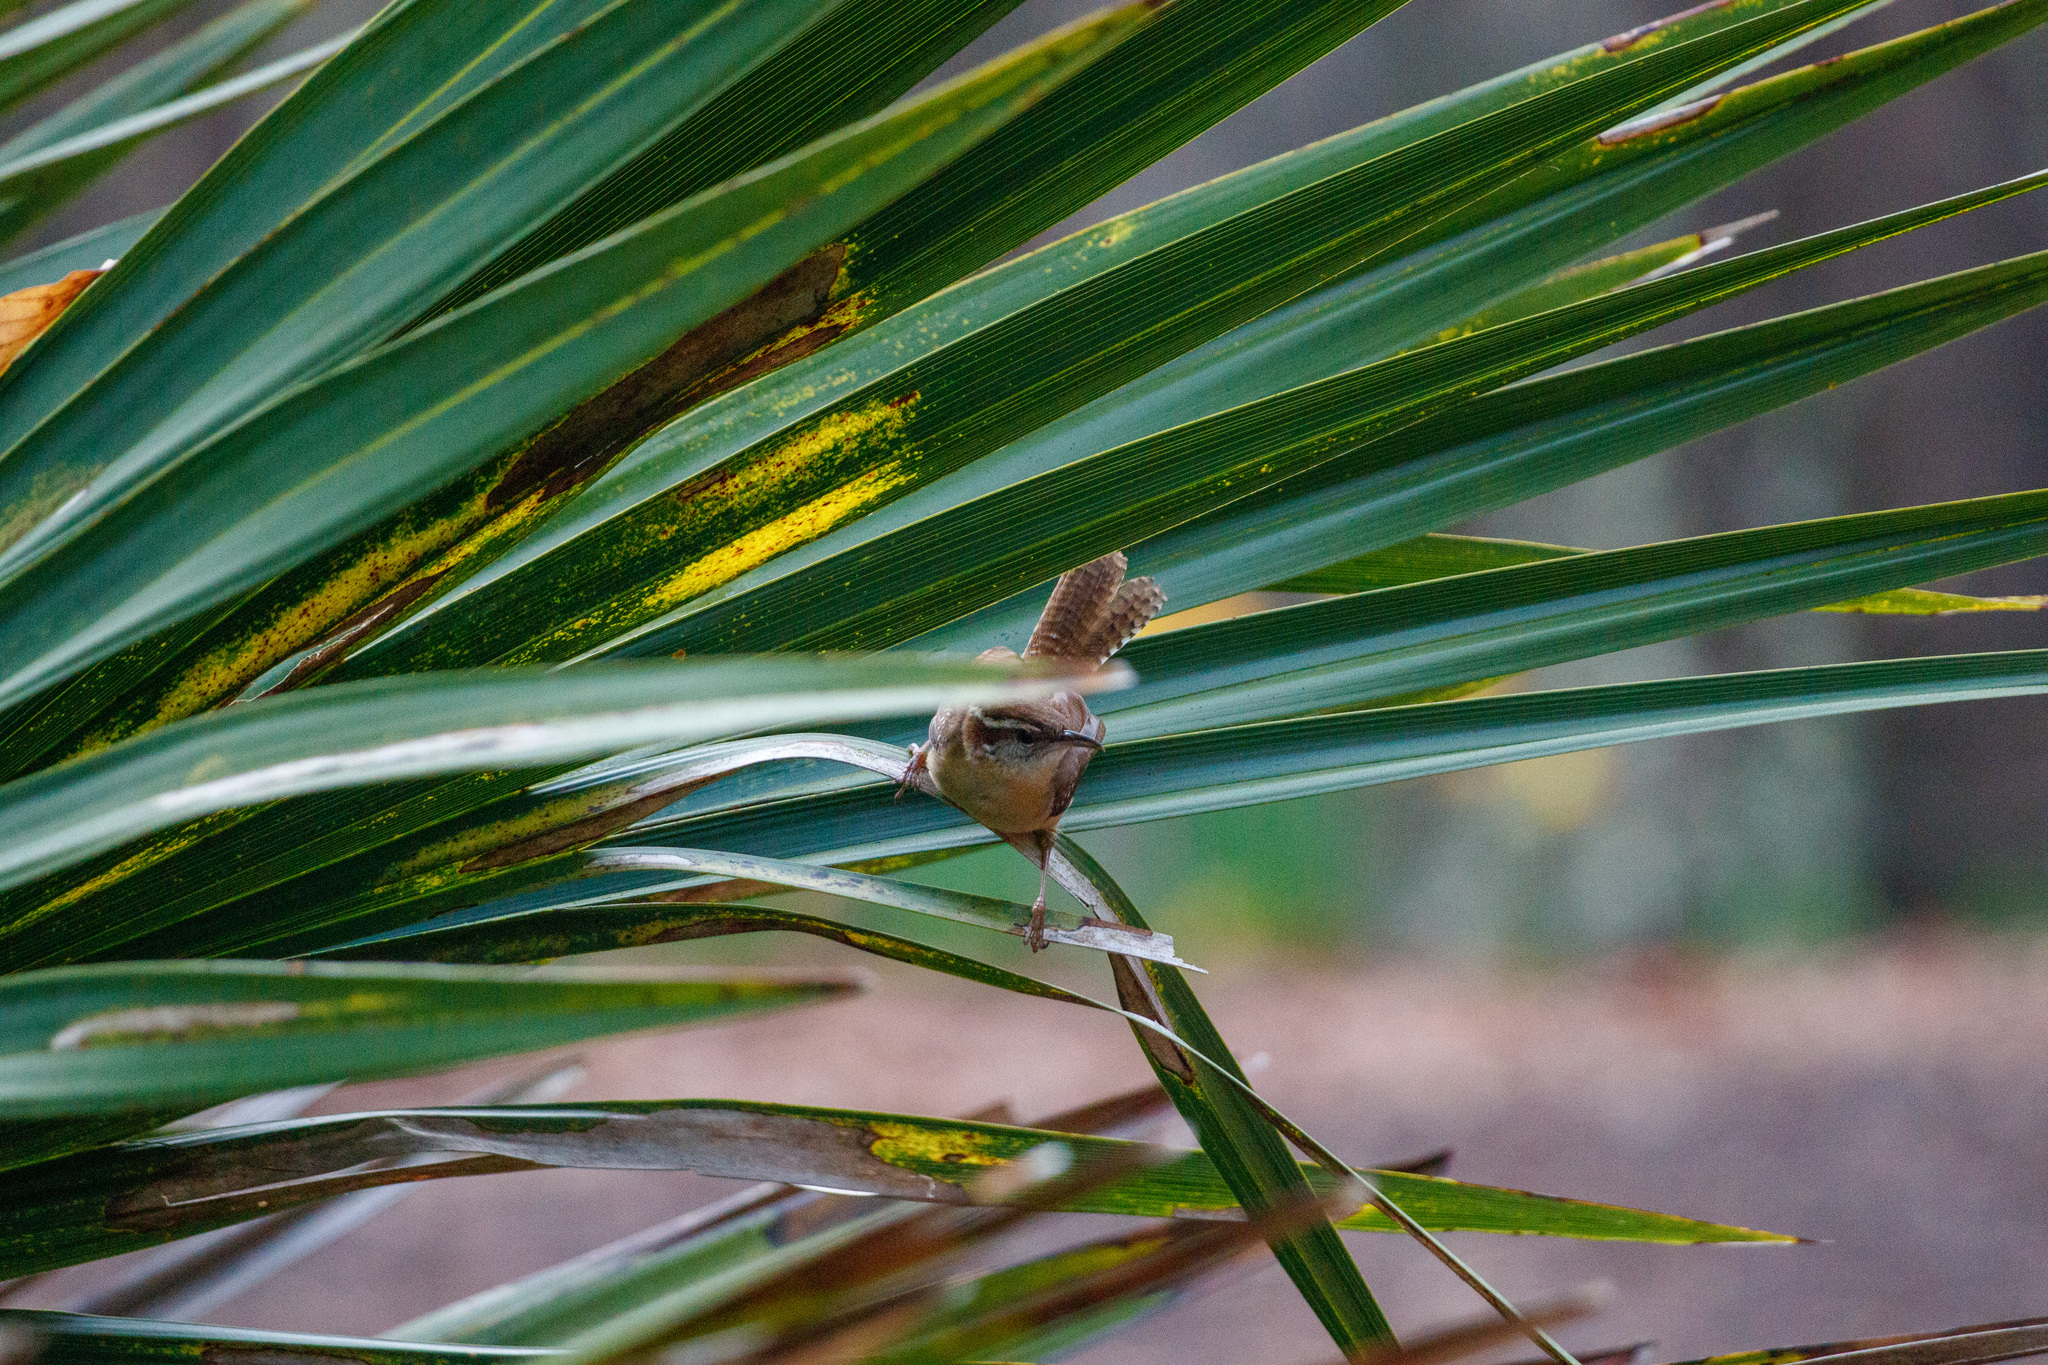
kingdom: Animalia
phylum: Chordata
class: Aves
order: Passeriformes
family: Troglodytidae
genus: Thryothorus
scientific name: Thryothorus ludovicianus
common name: Carolina wren
